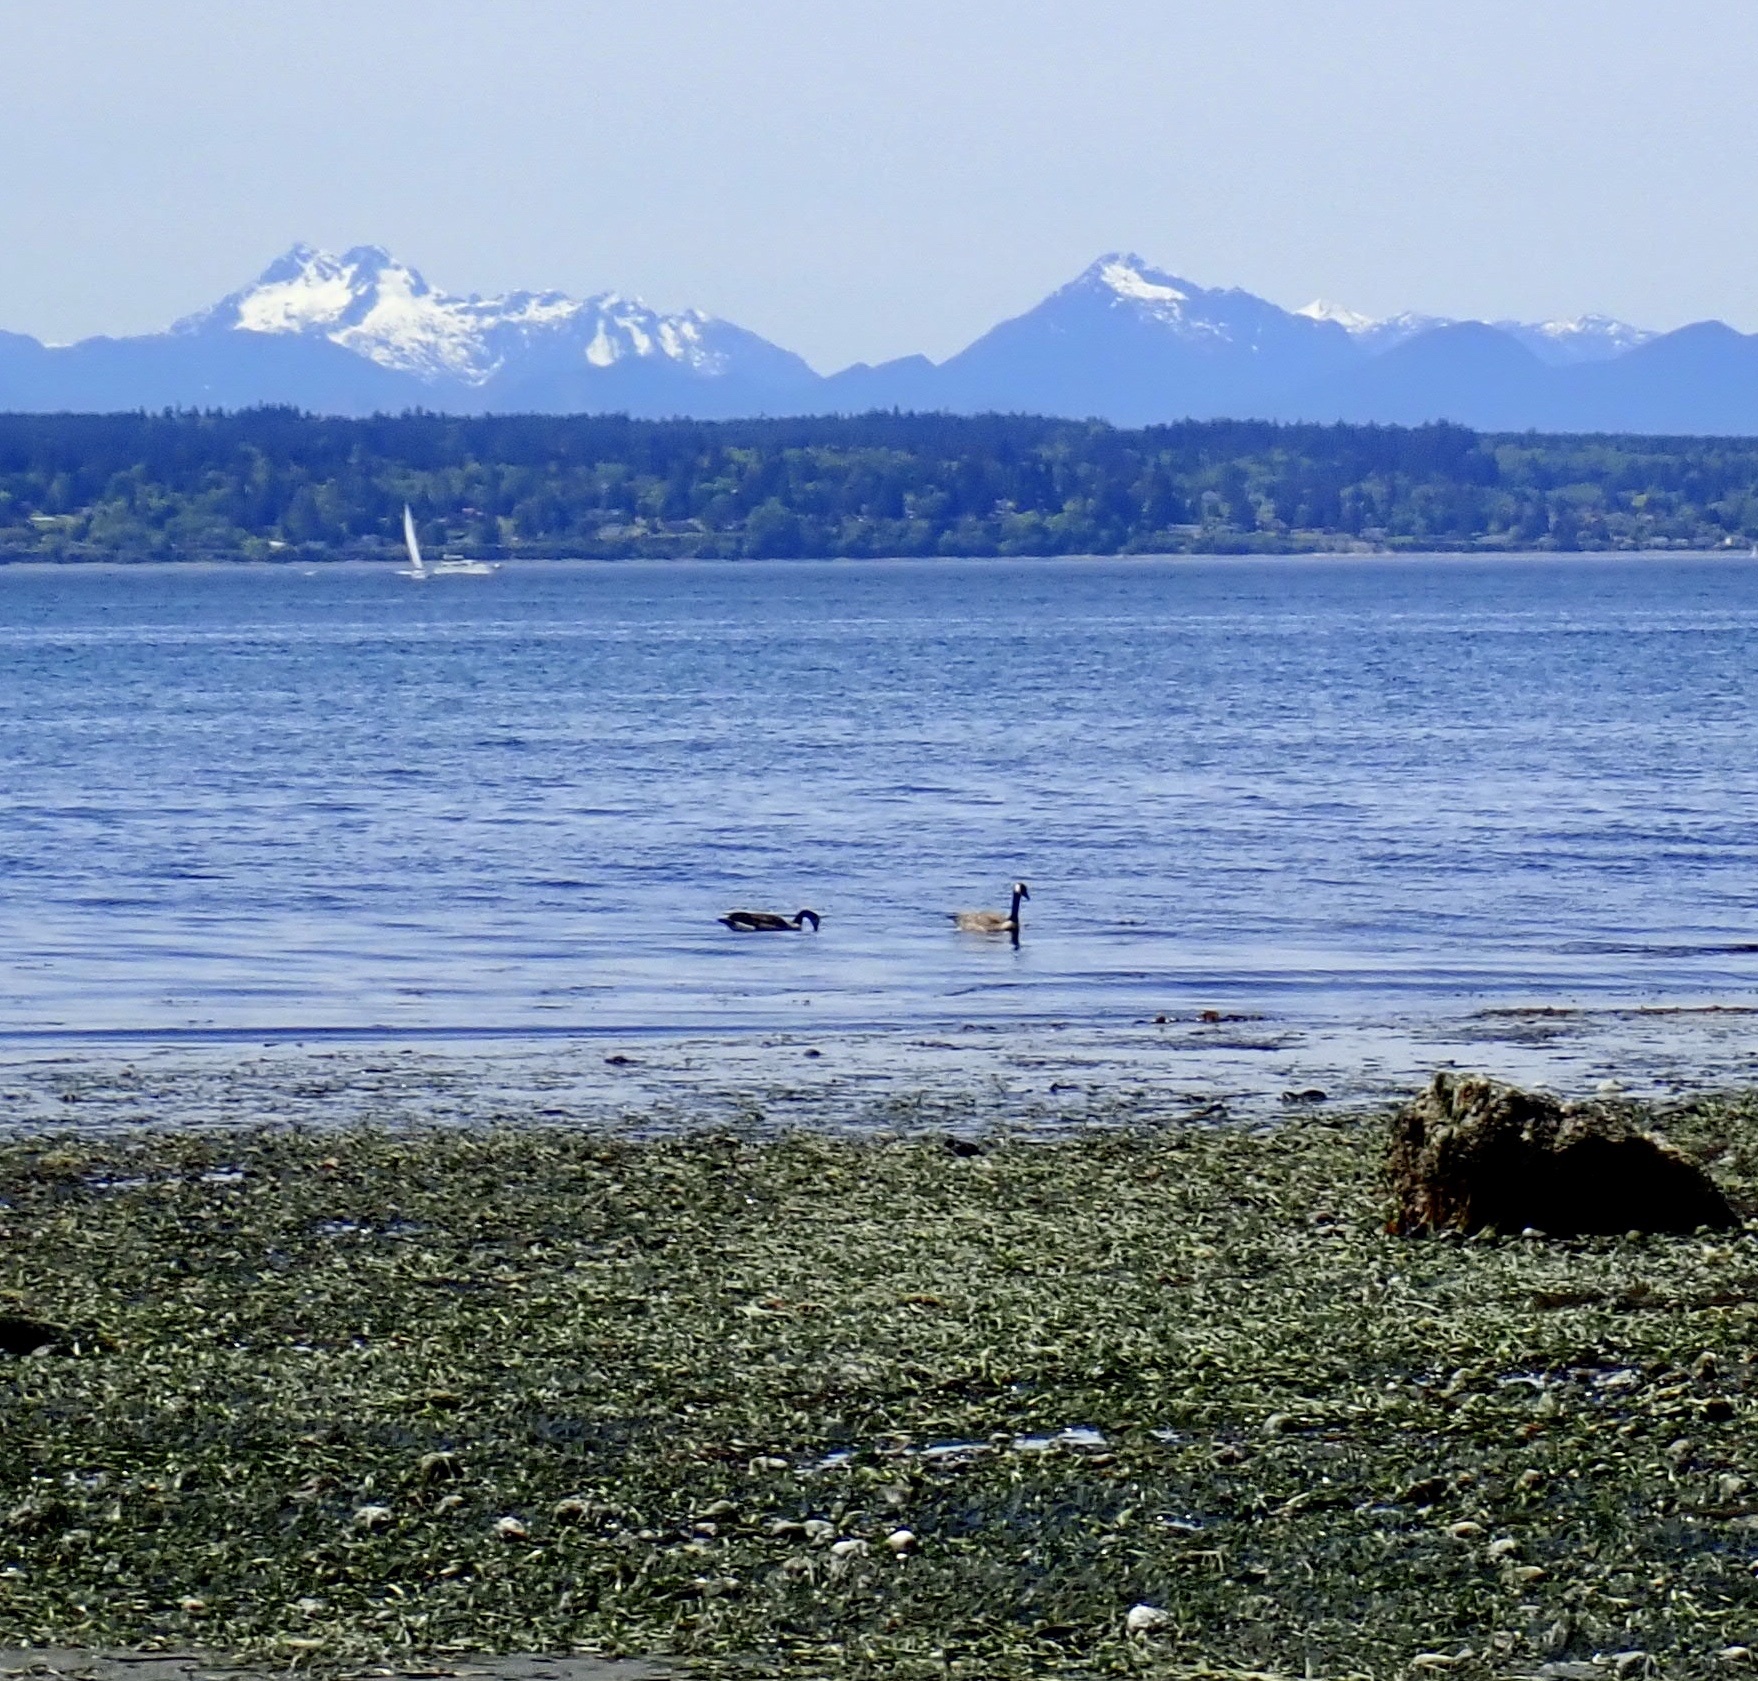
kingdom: Animalia
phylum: Chordata
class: Aves
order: Anseriformes
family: Anatidae
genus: Branta
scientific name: Branta canadensis
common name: Canada goose
